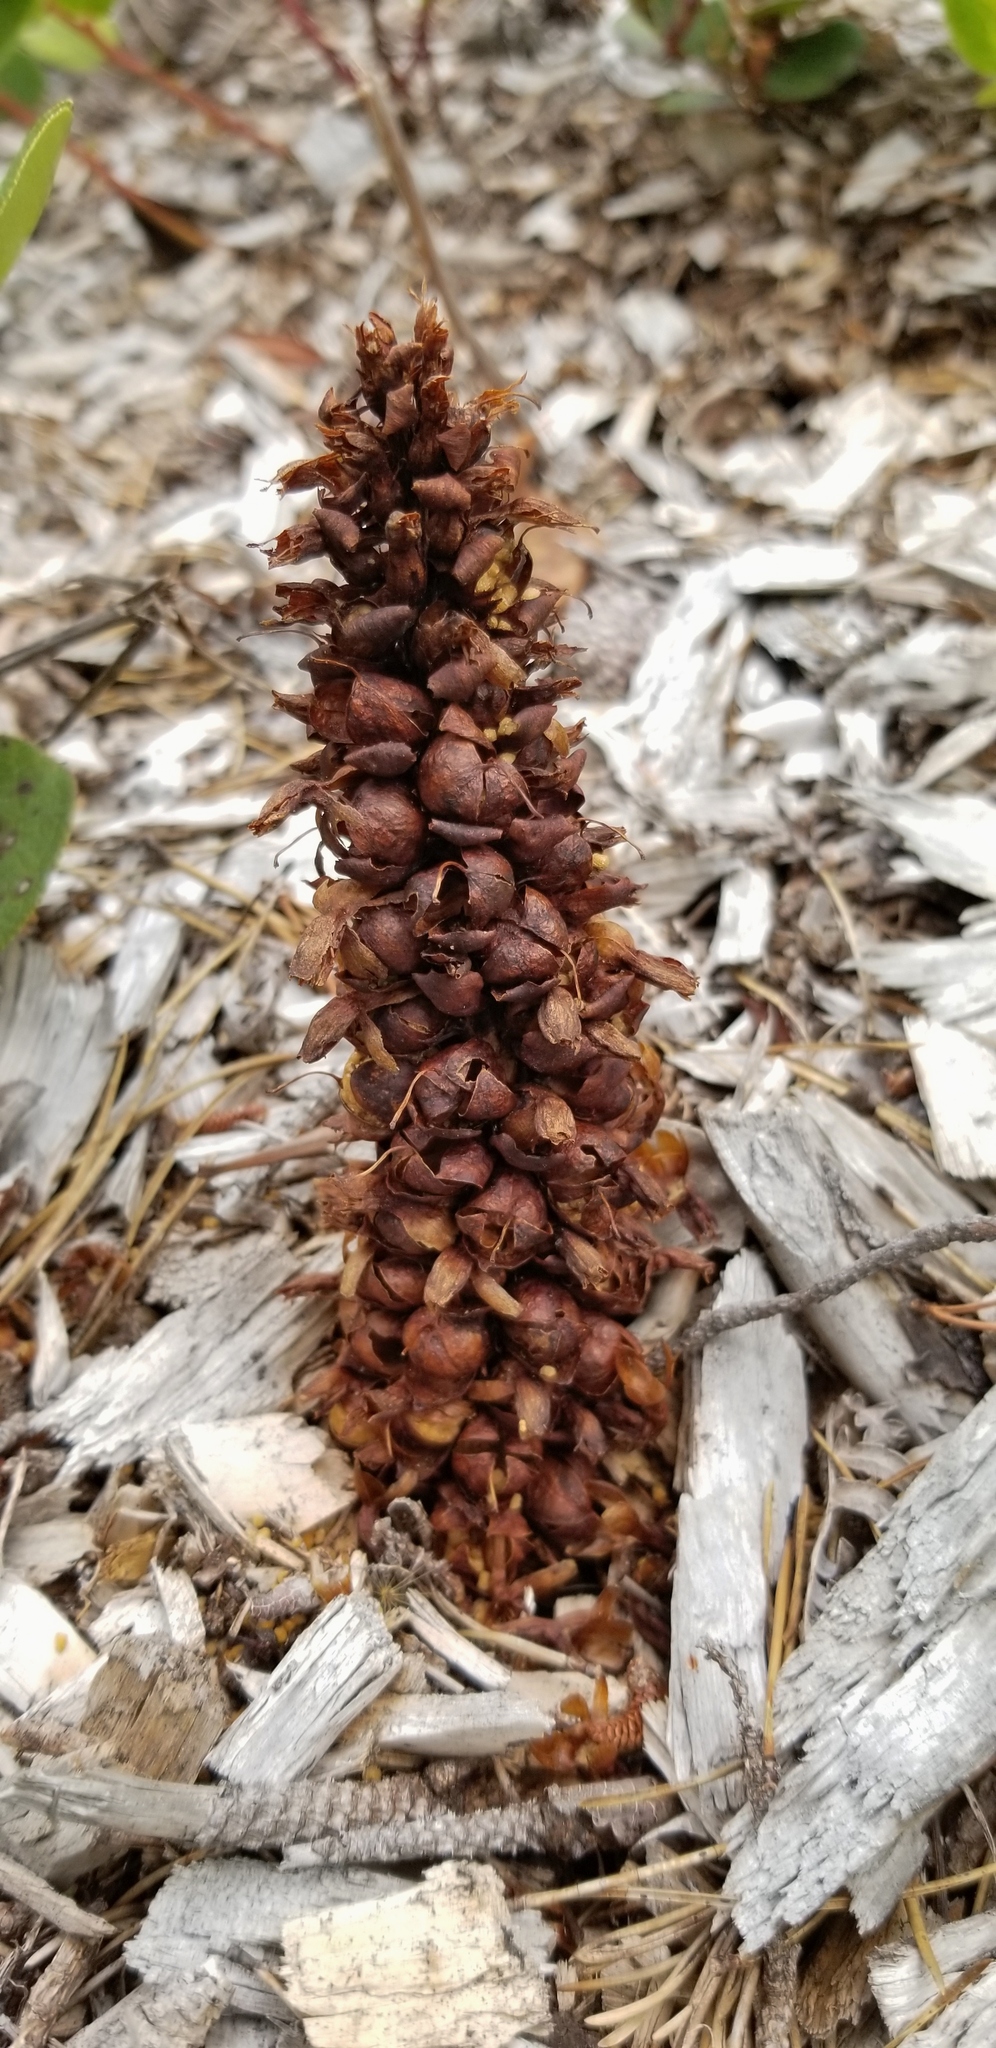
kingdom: Plantae
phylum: Tracheophyta
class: Magnoliopsida
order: Lamiales
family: Orobanchaceae
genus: Kopsiopsis
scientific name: Kopsiopsis hookeri
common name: Hooker's groundcone
